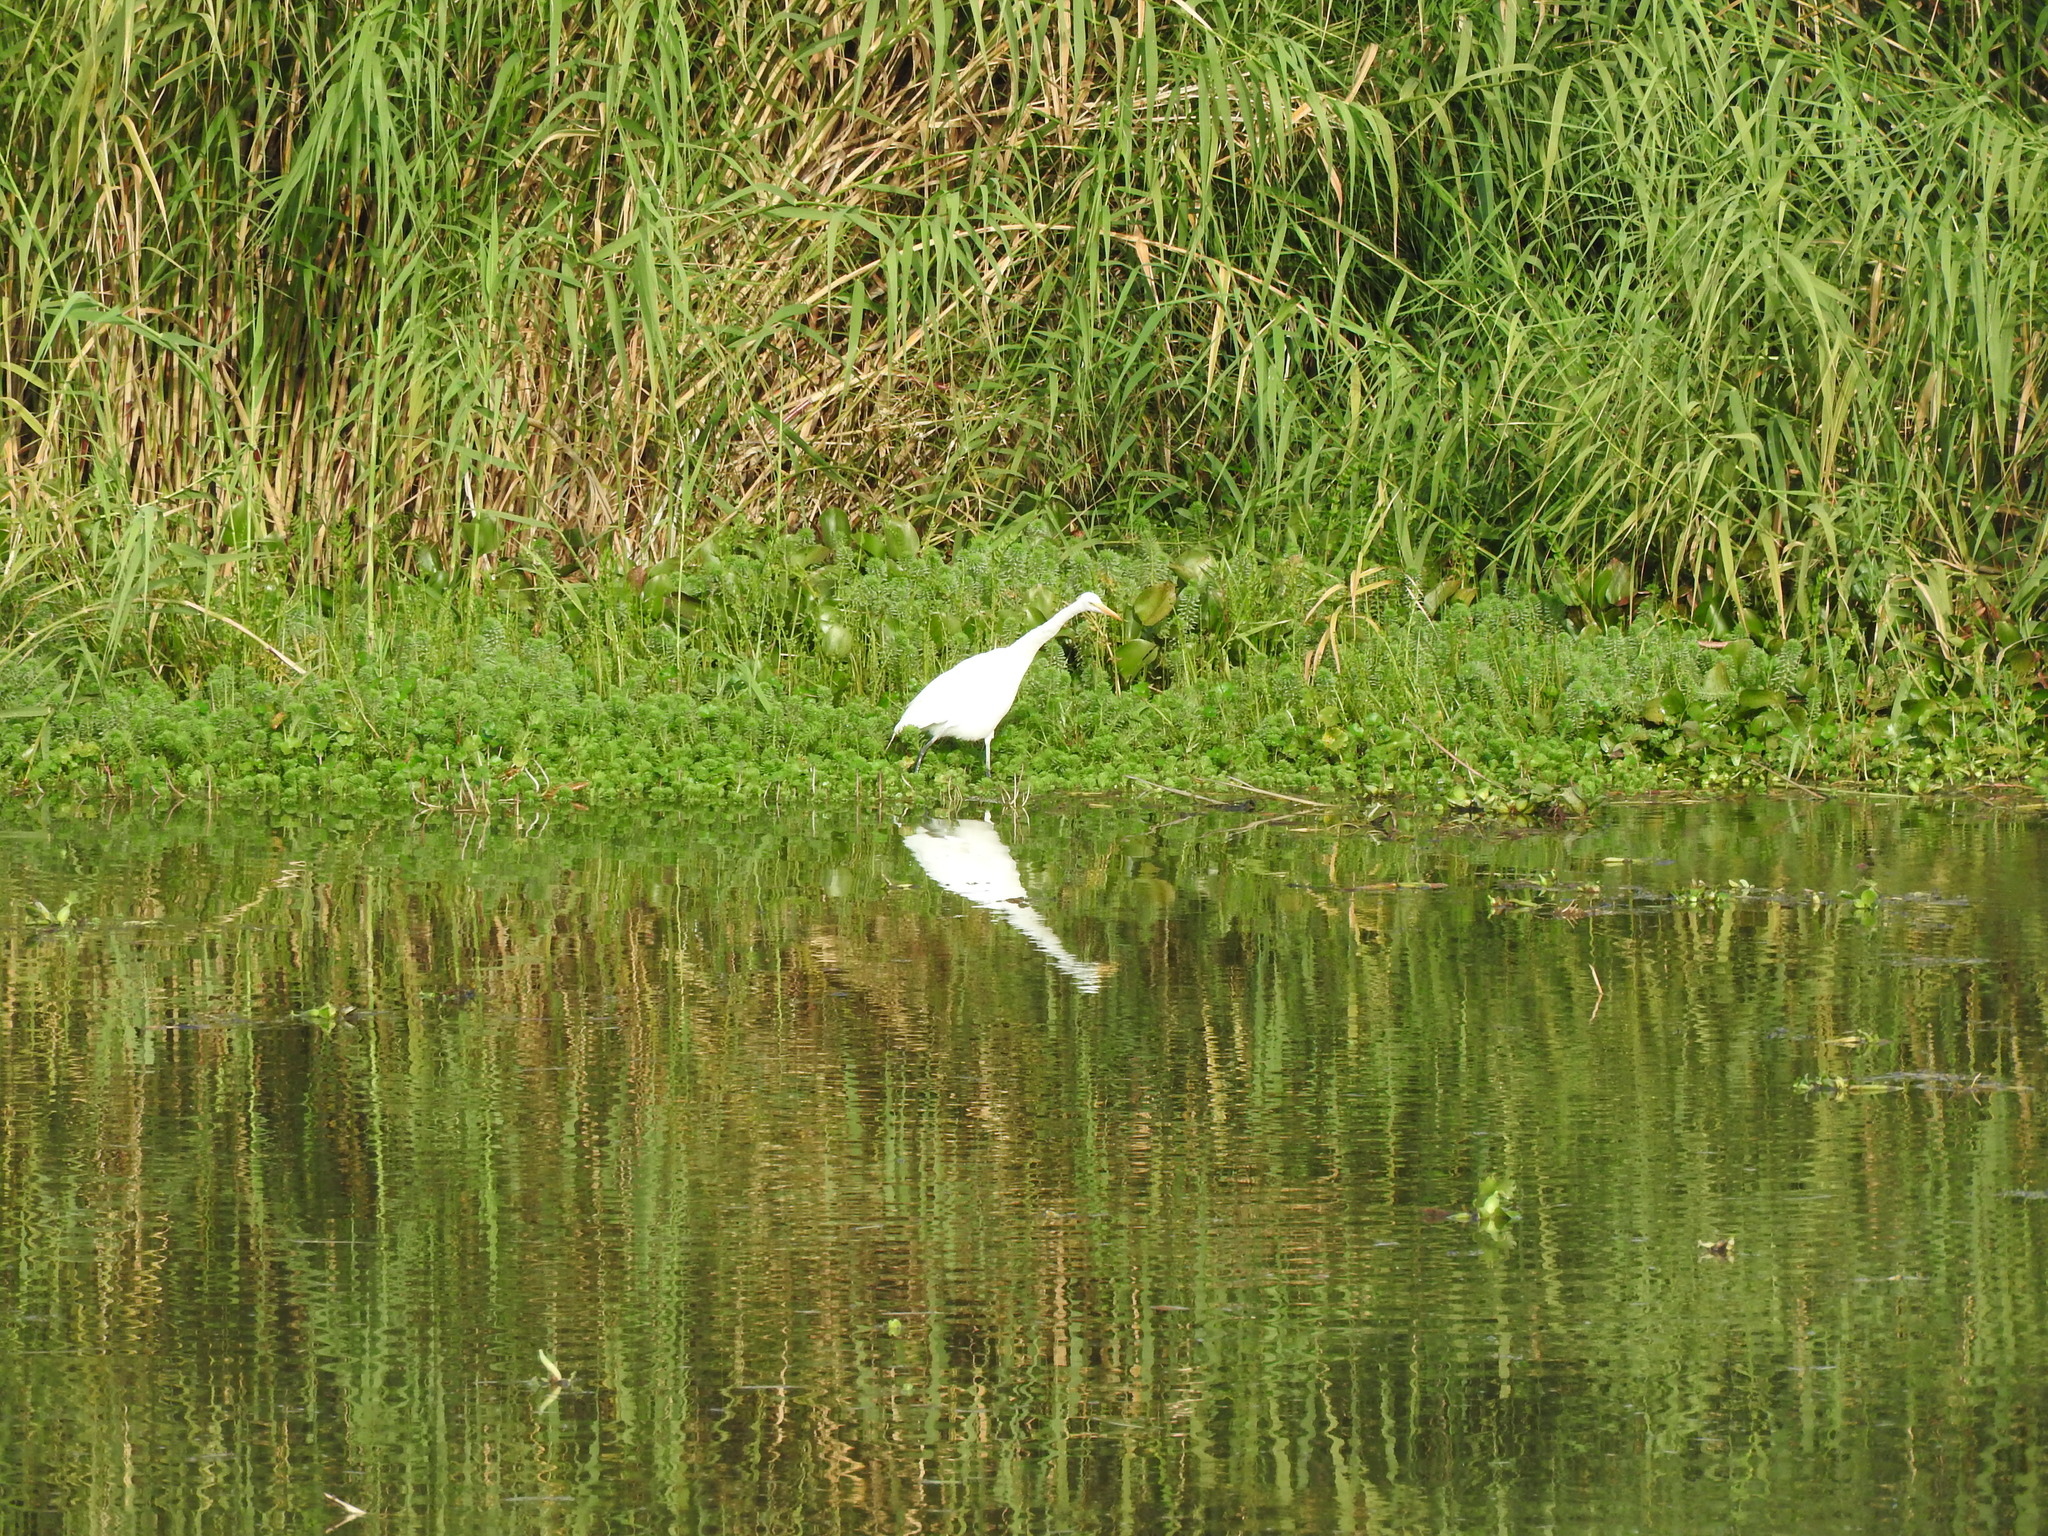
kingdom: Animalia
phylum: Chordata
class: Aves
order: Pelecaniformes
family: Ardeidae
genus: Ardea
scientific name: Ardea alba
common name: Great egret
